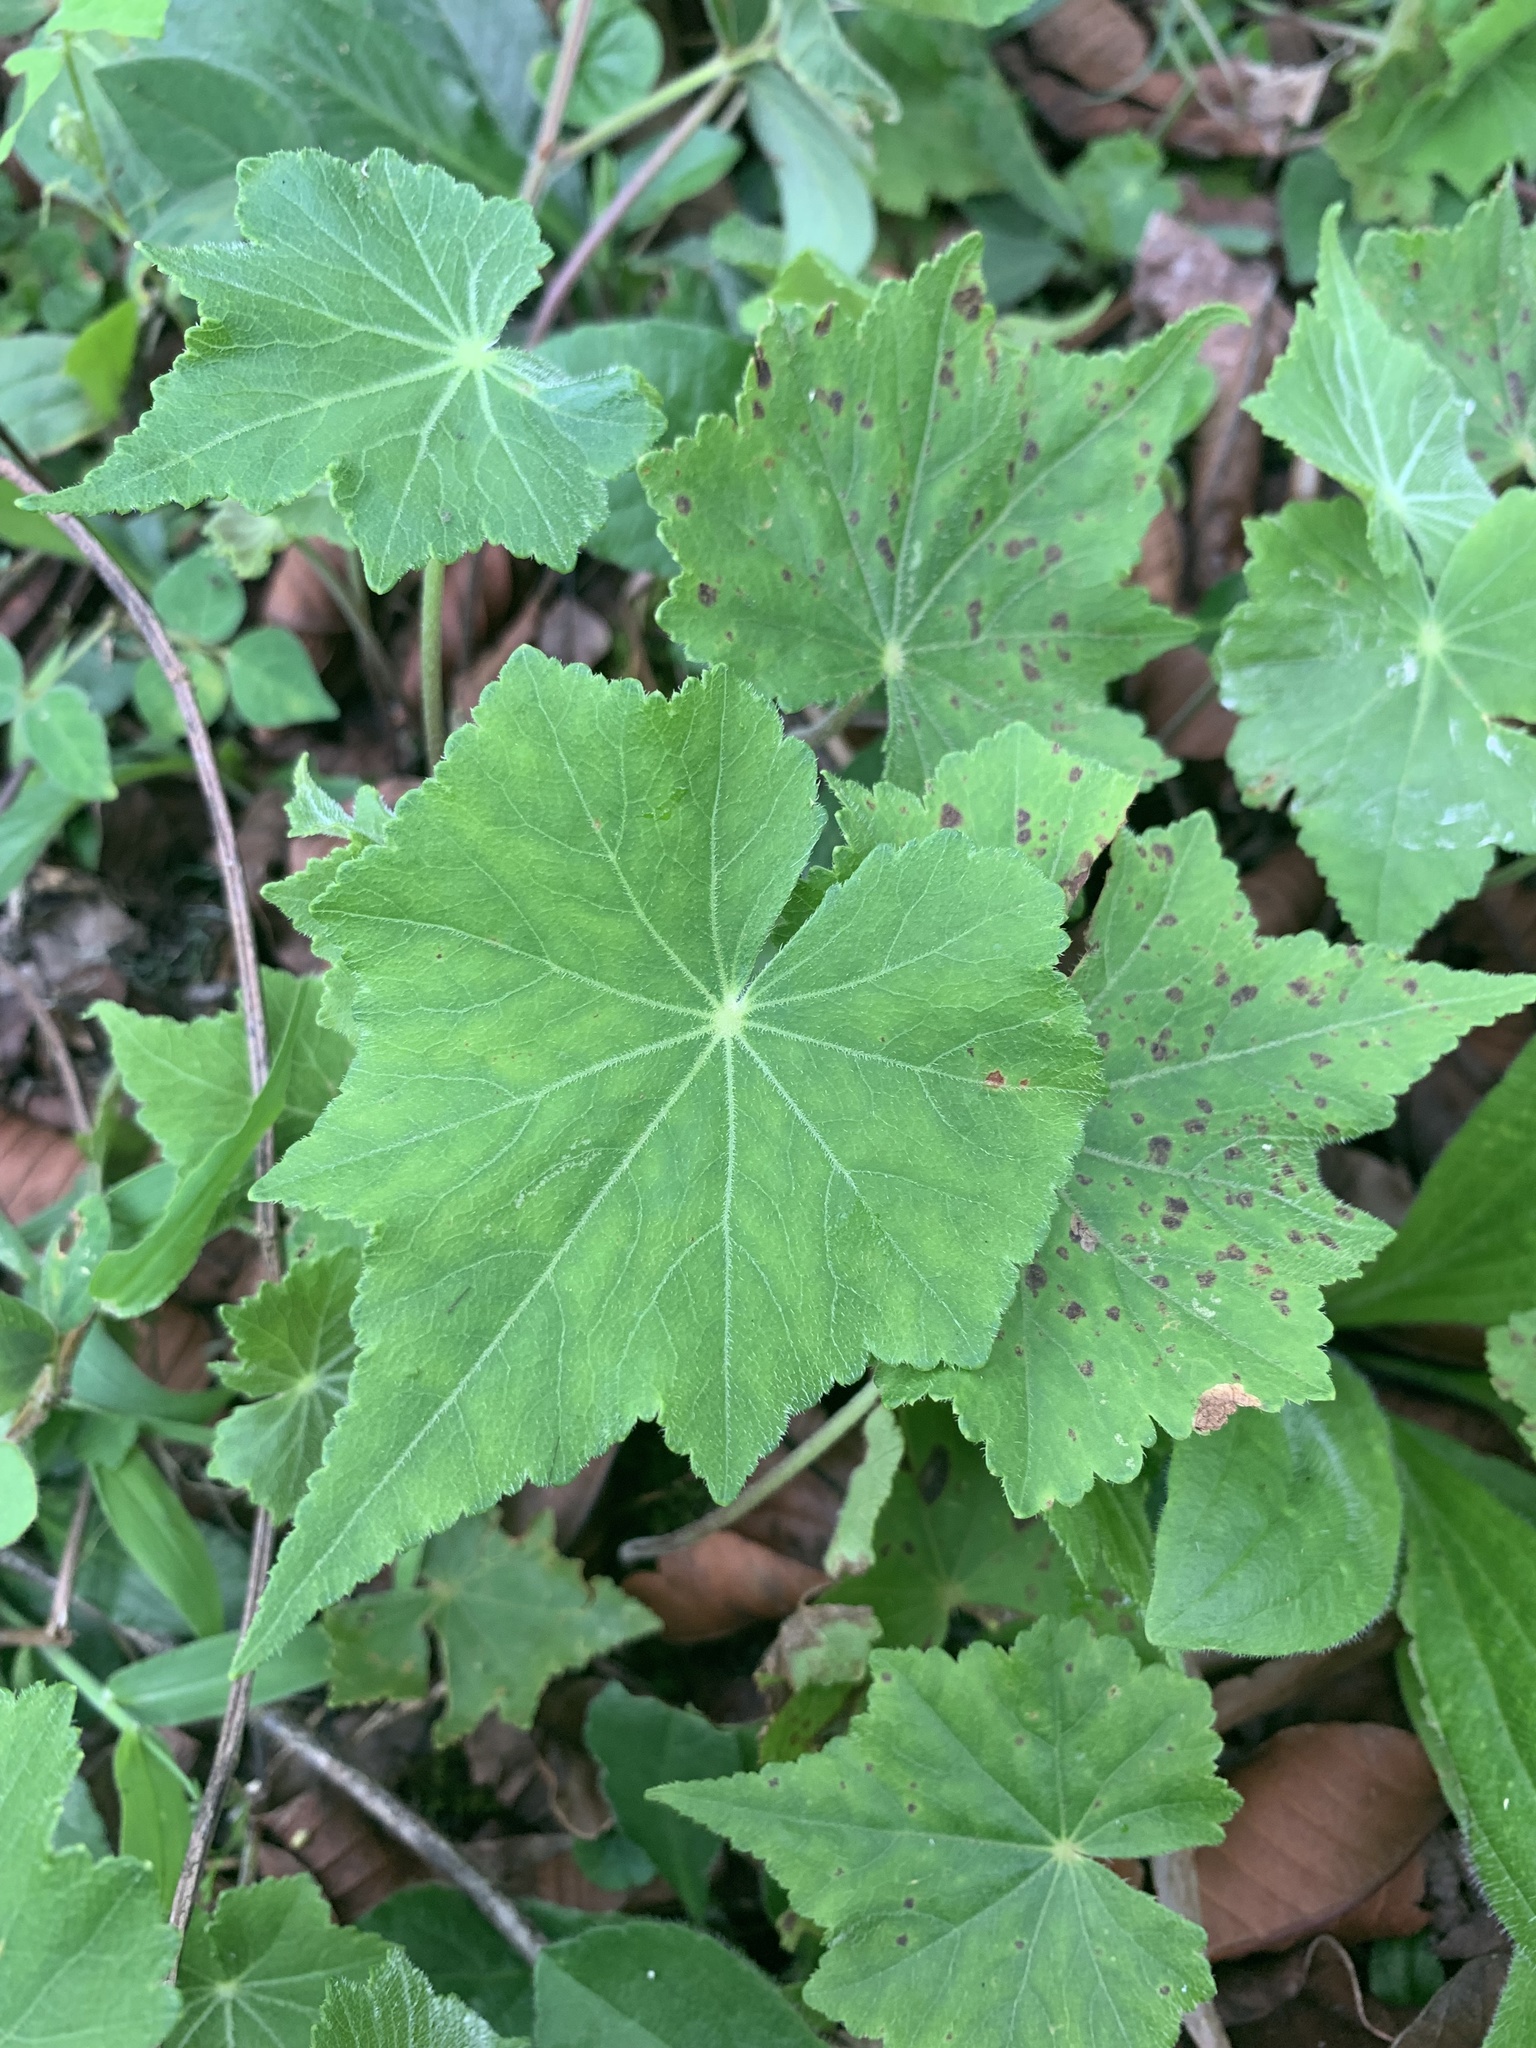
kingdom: Plantae
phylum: Tracheophyta
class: Magnoliopsida
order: Apiales
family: Araliaceae
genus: Hydrocotyle
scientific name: Hydrocotyle acutifolia
